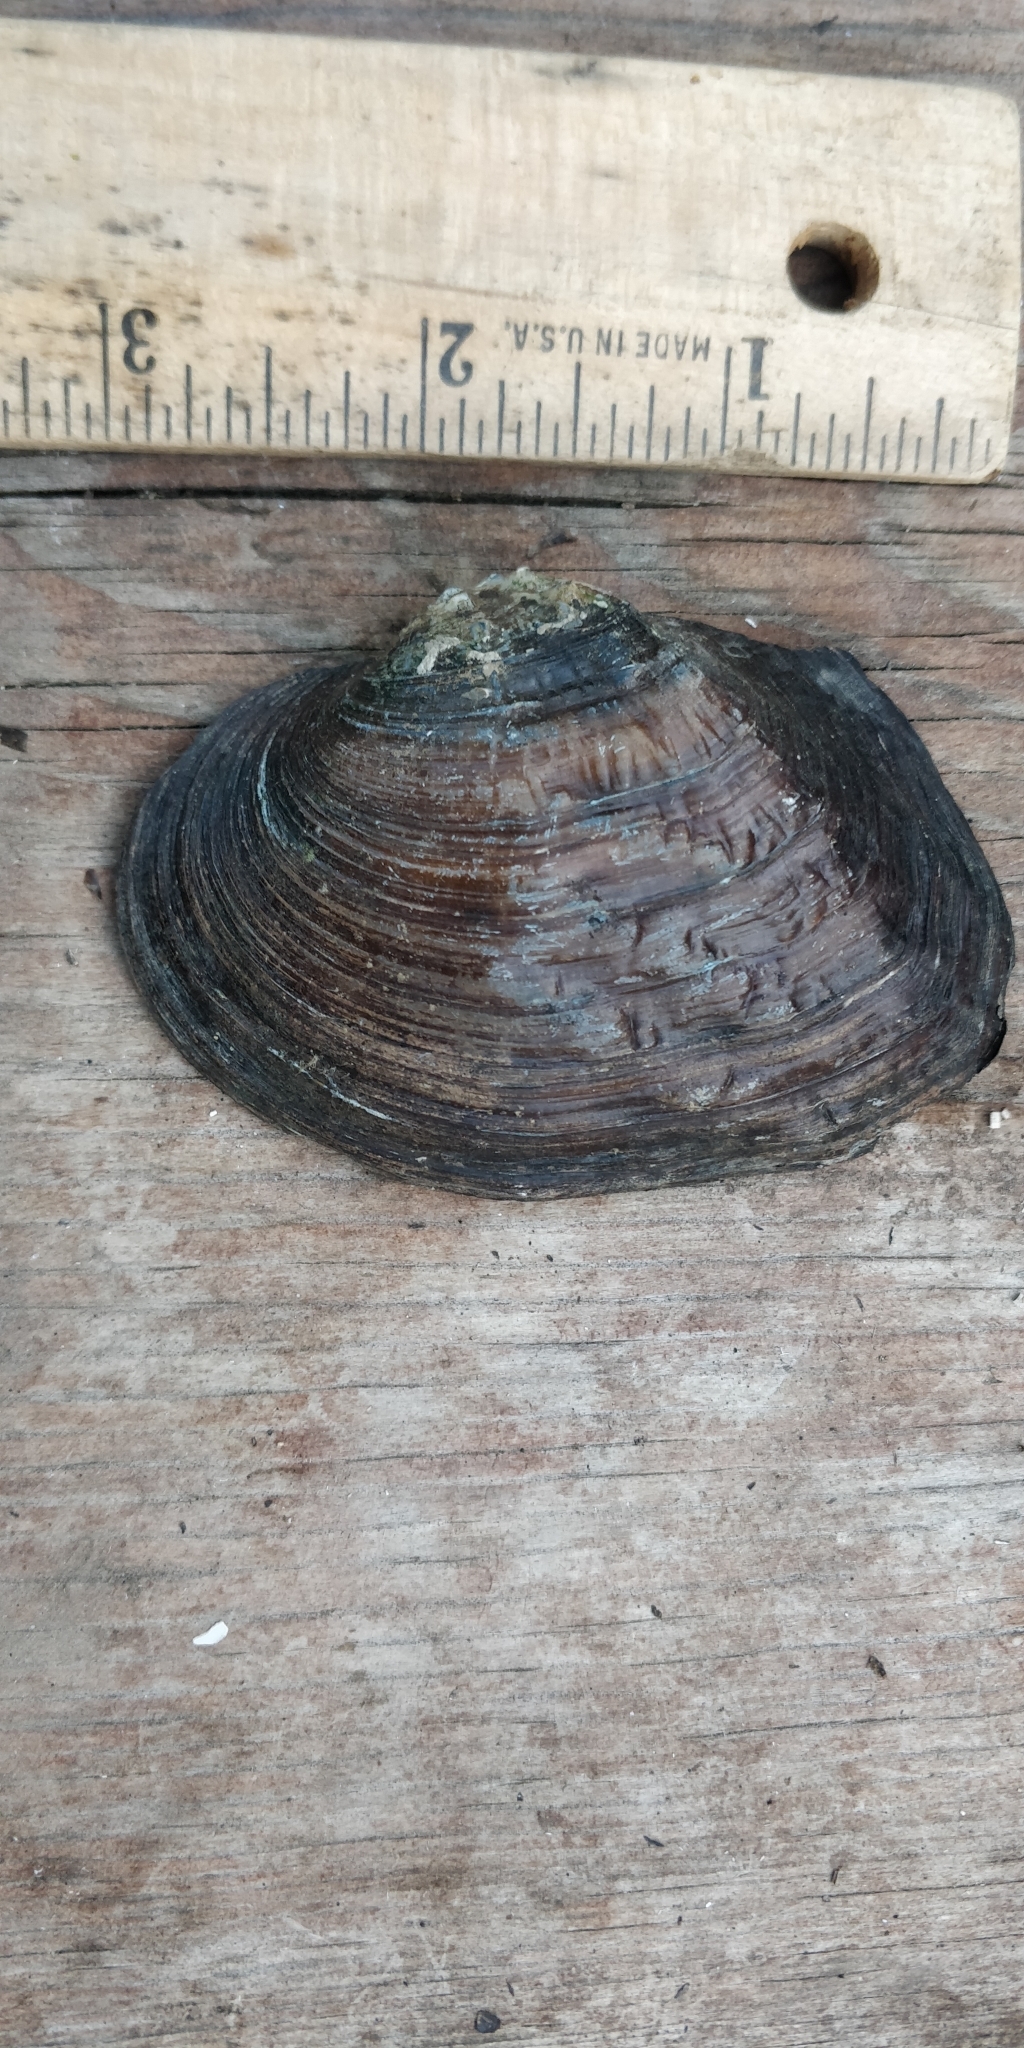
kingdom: Animalia
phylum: Mollusca
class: Bivalvia
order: Unionida
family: Unionidae
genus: Arcidens
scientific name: Arcidens confragosus
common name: Rock pocketbook
